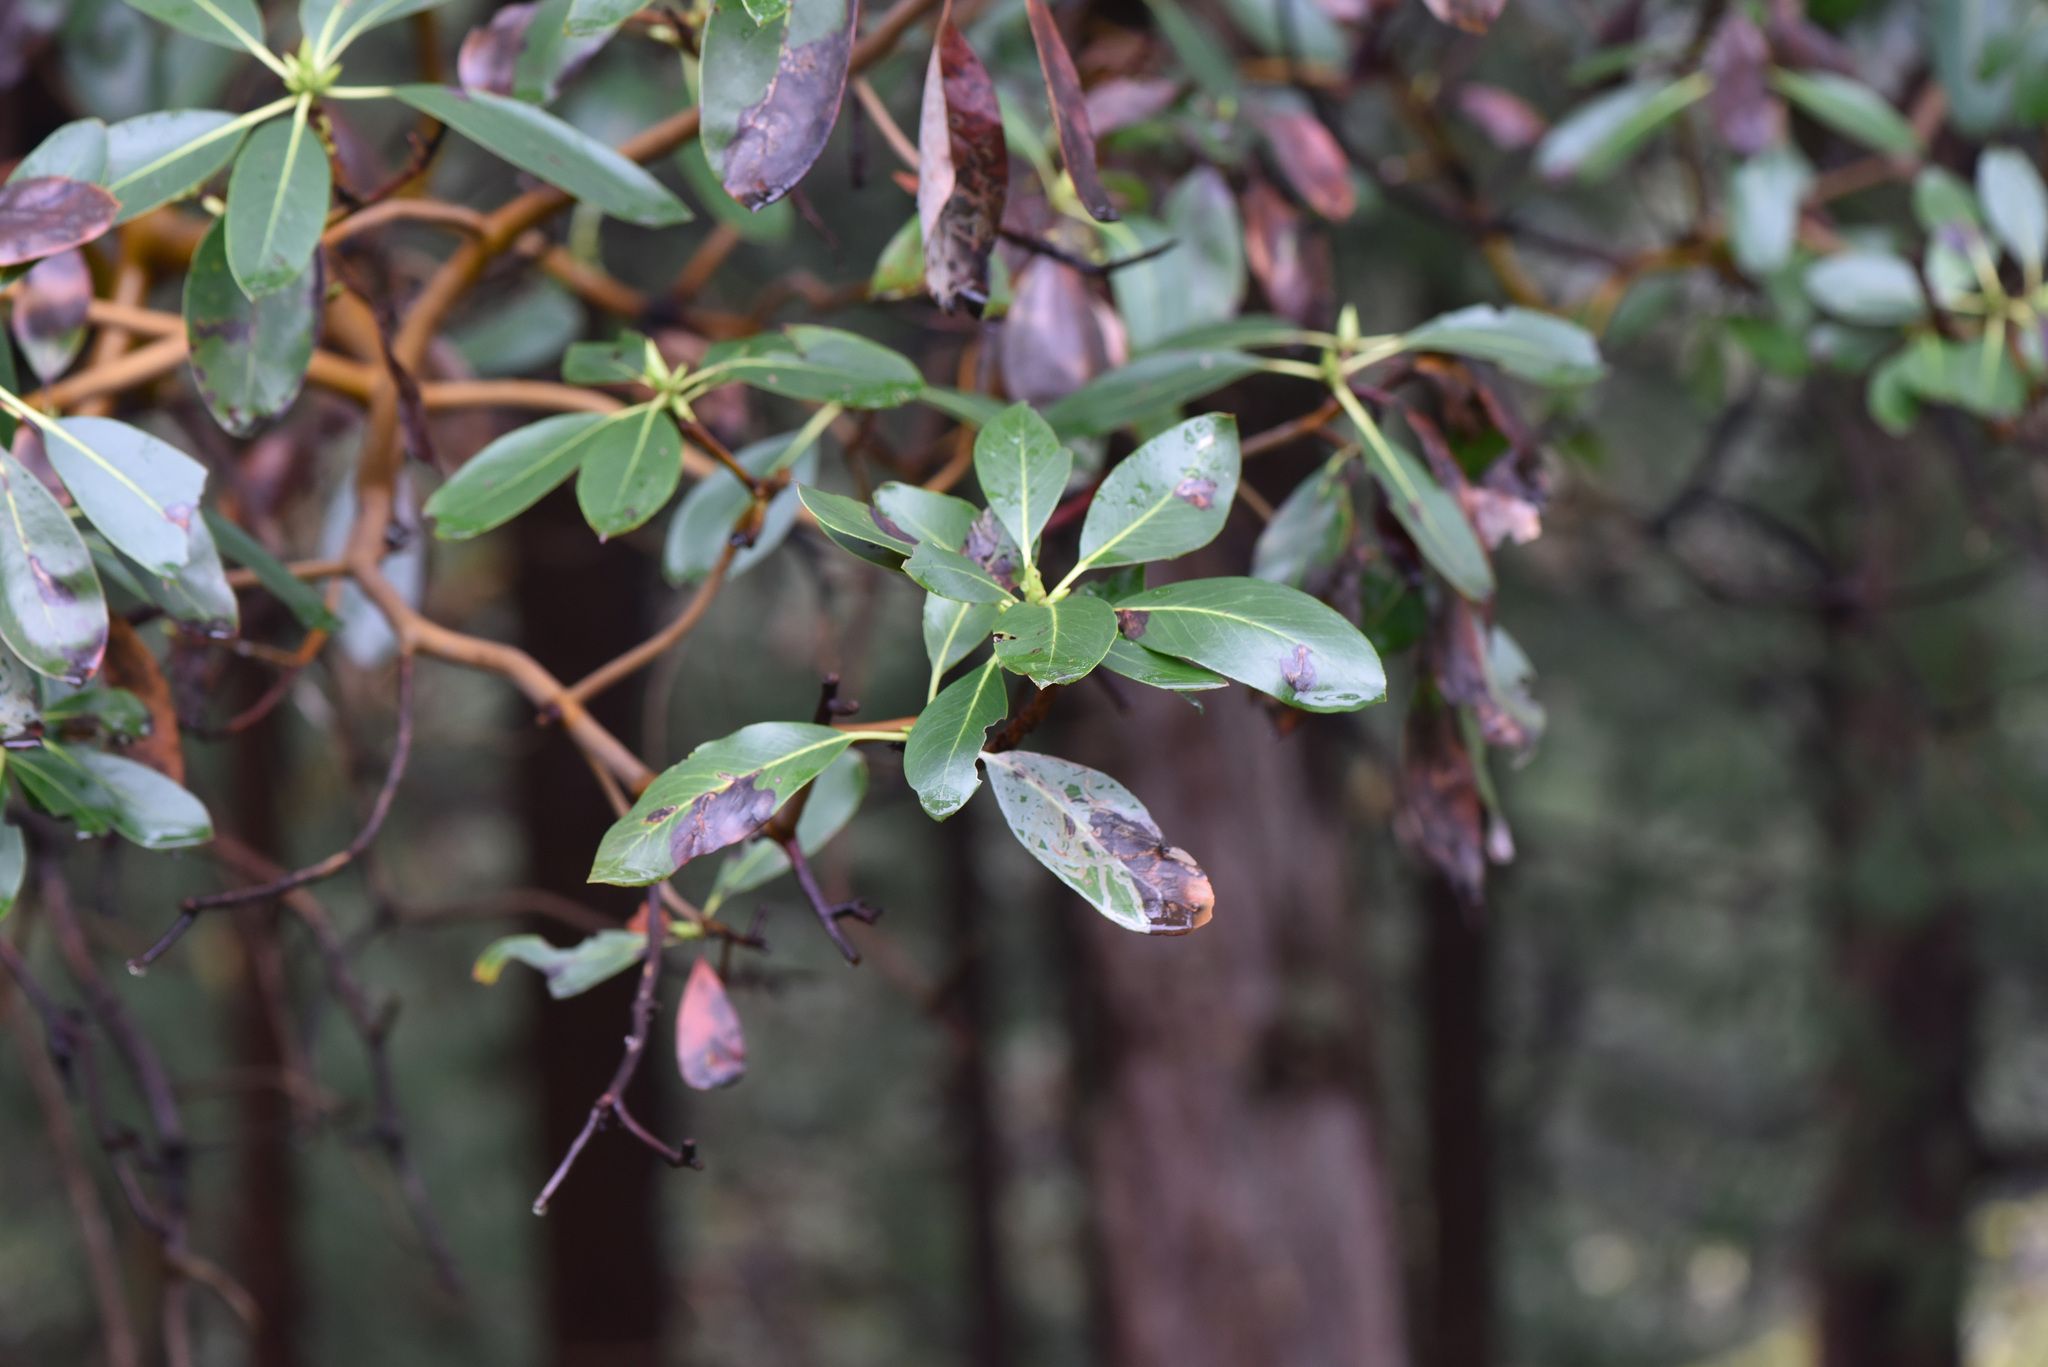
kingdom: Plantae
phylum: Tracheophyta
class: Magnoliopsida
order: Ericales
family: Ericaceae
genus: Arbutus
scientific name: Arbutus menziesii
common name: Pacific madrone
